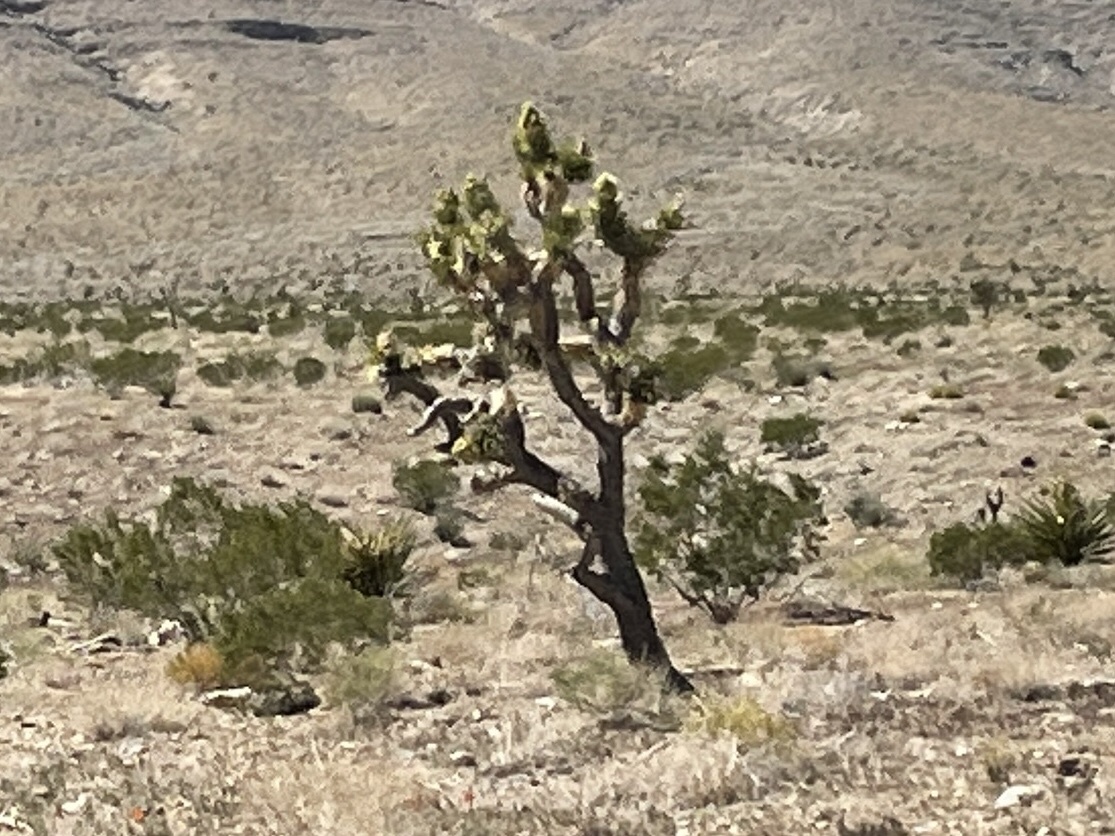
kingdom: Plantae
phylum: Tracheophyta
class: Liliopsida
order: Asparagales
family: Asparagaceae
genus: Yucca
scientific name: Yucca brevifolia
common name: Joshua tree
